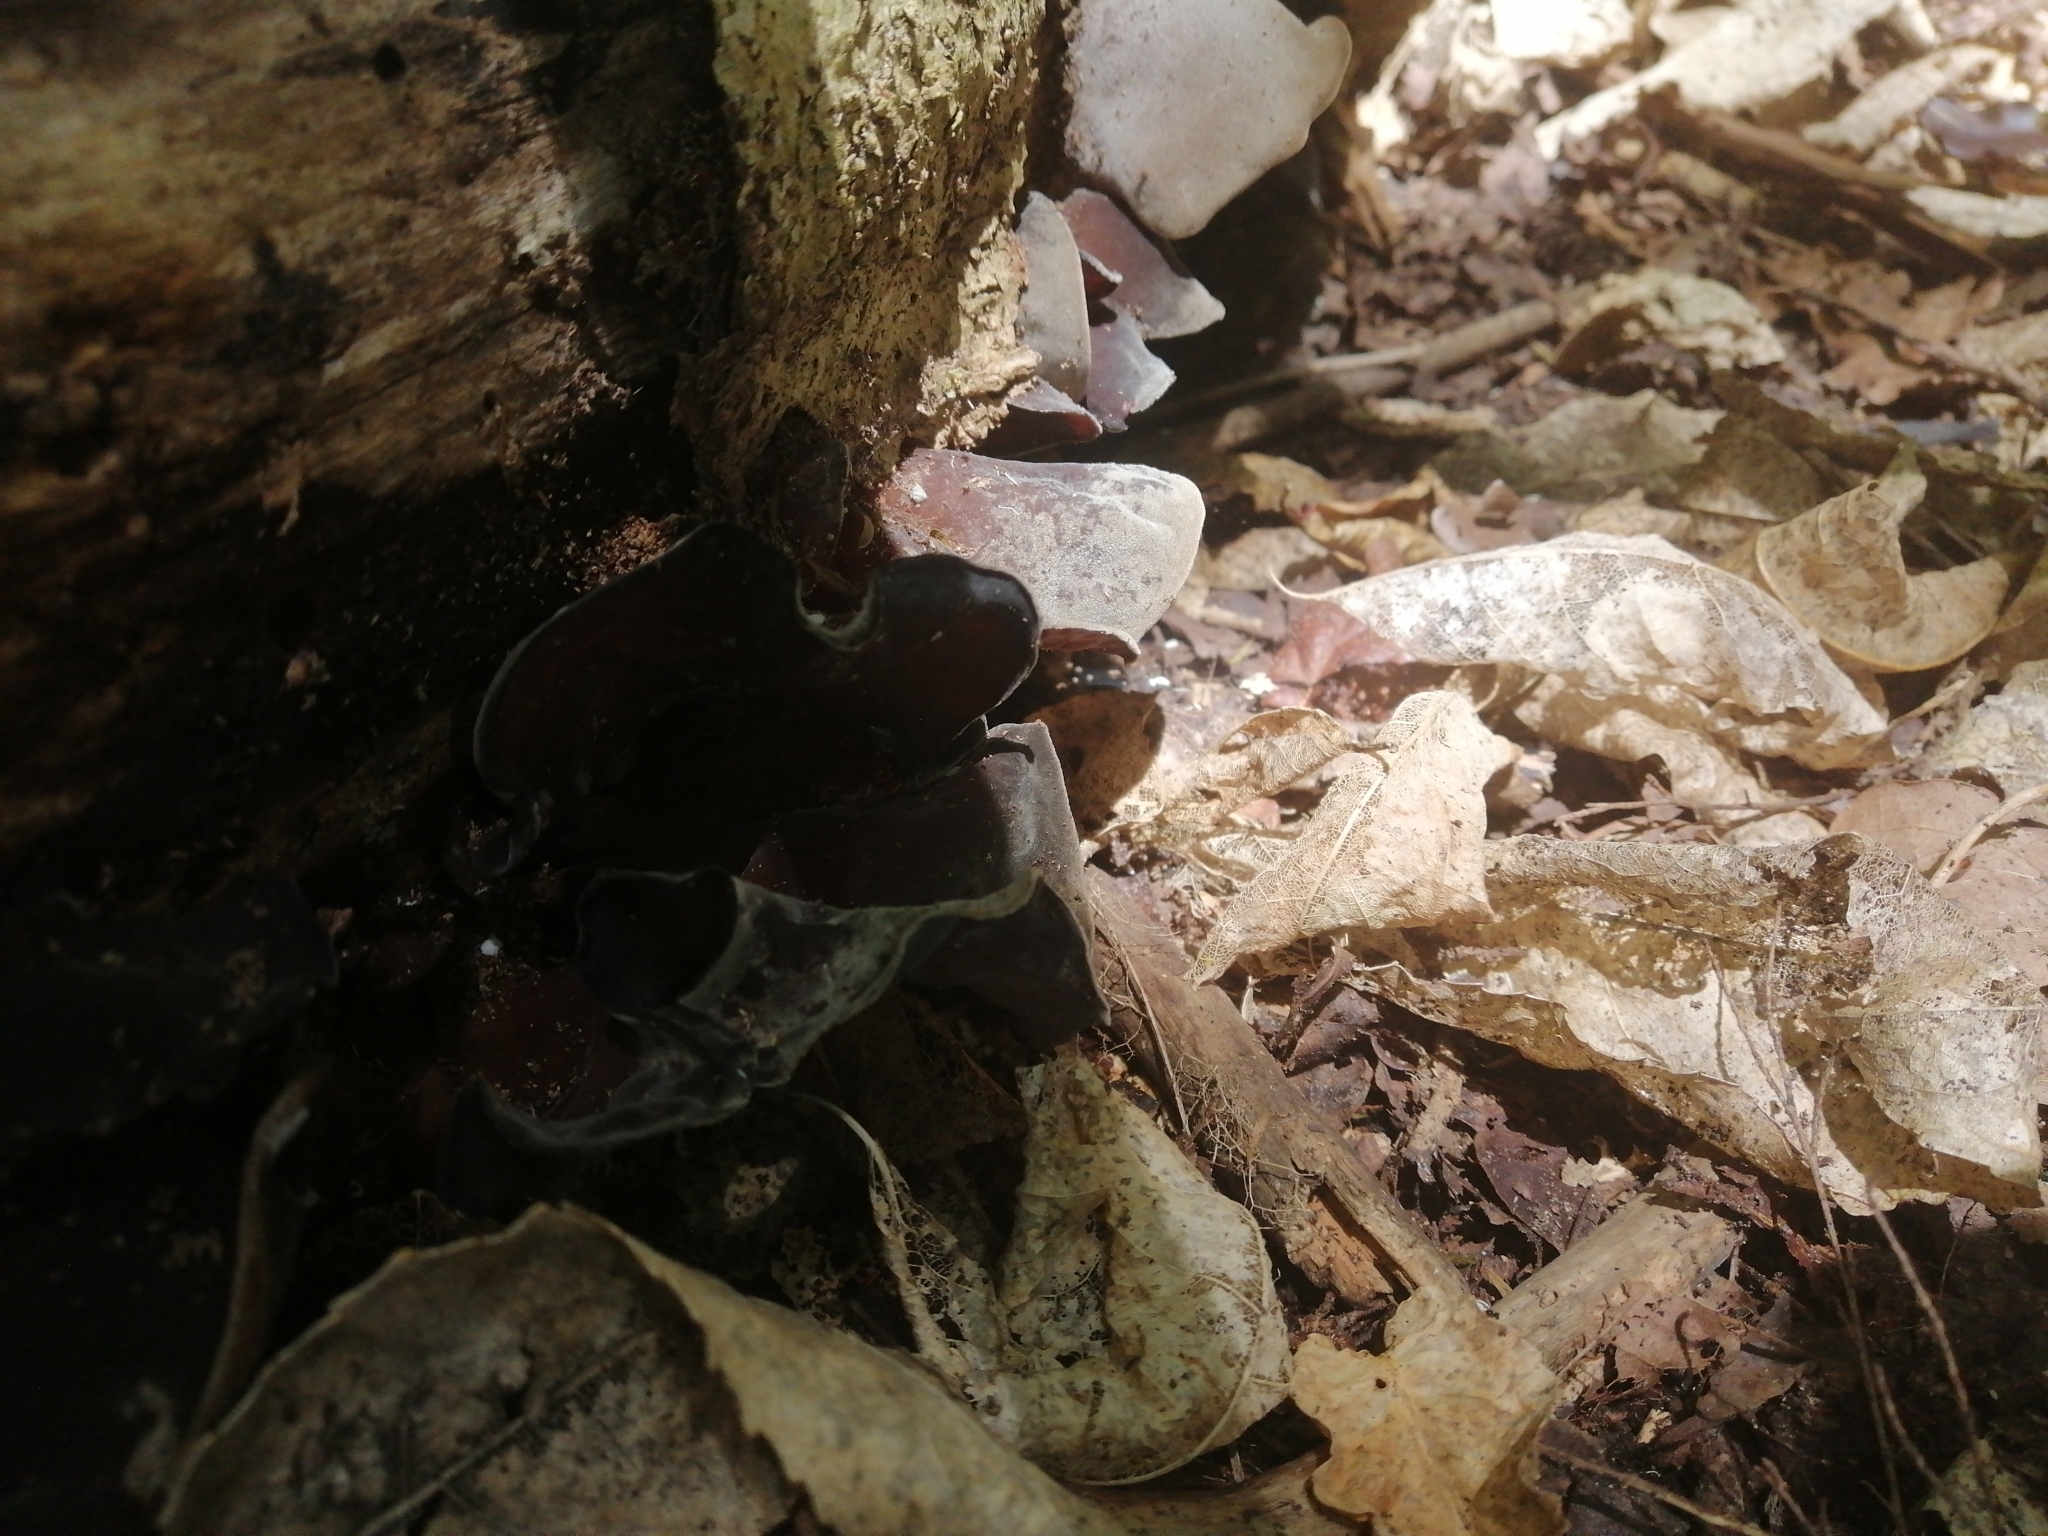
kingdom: Fungi
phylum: Basidiomycota
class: Agaricomycetes
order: Auriculariales
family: Auriculariaceae
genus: Auricularia
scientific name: Auricularia cornea
